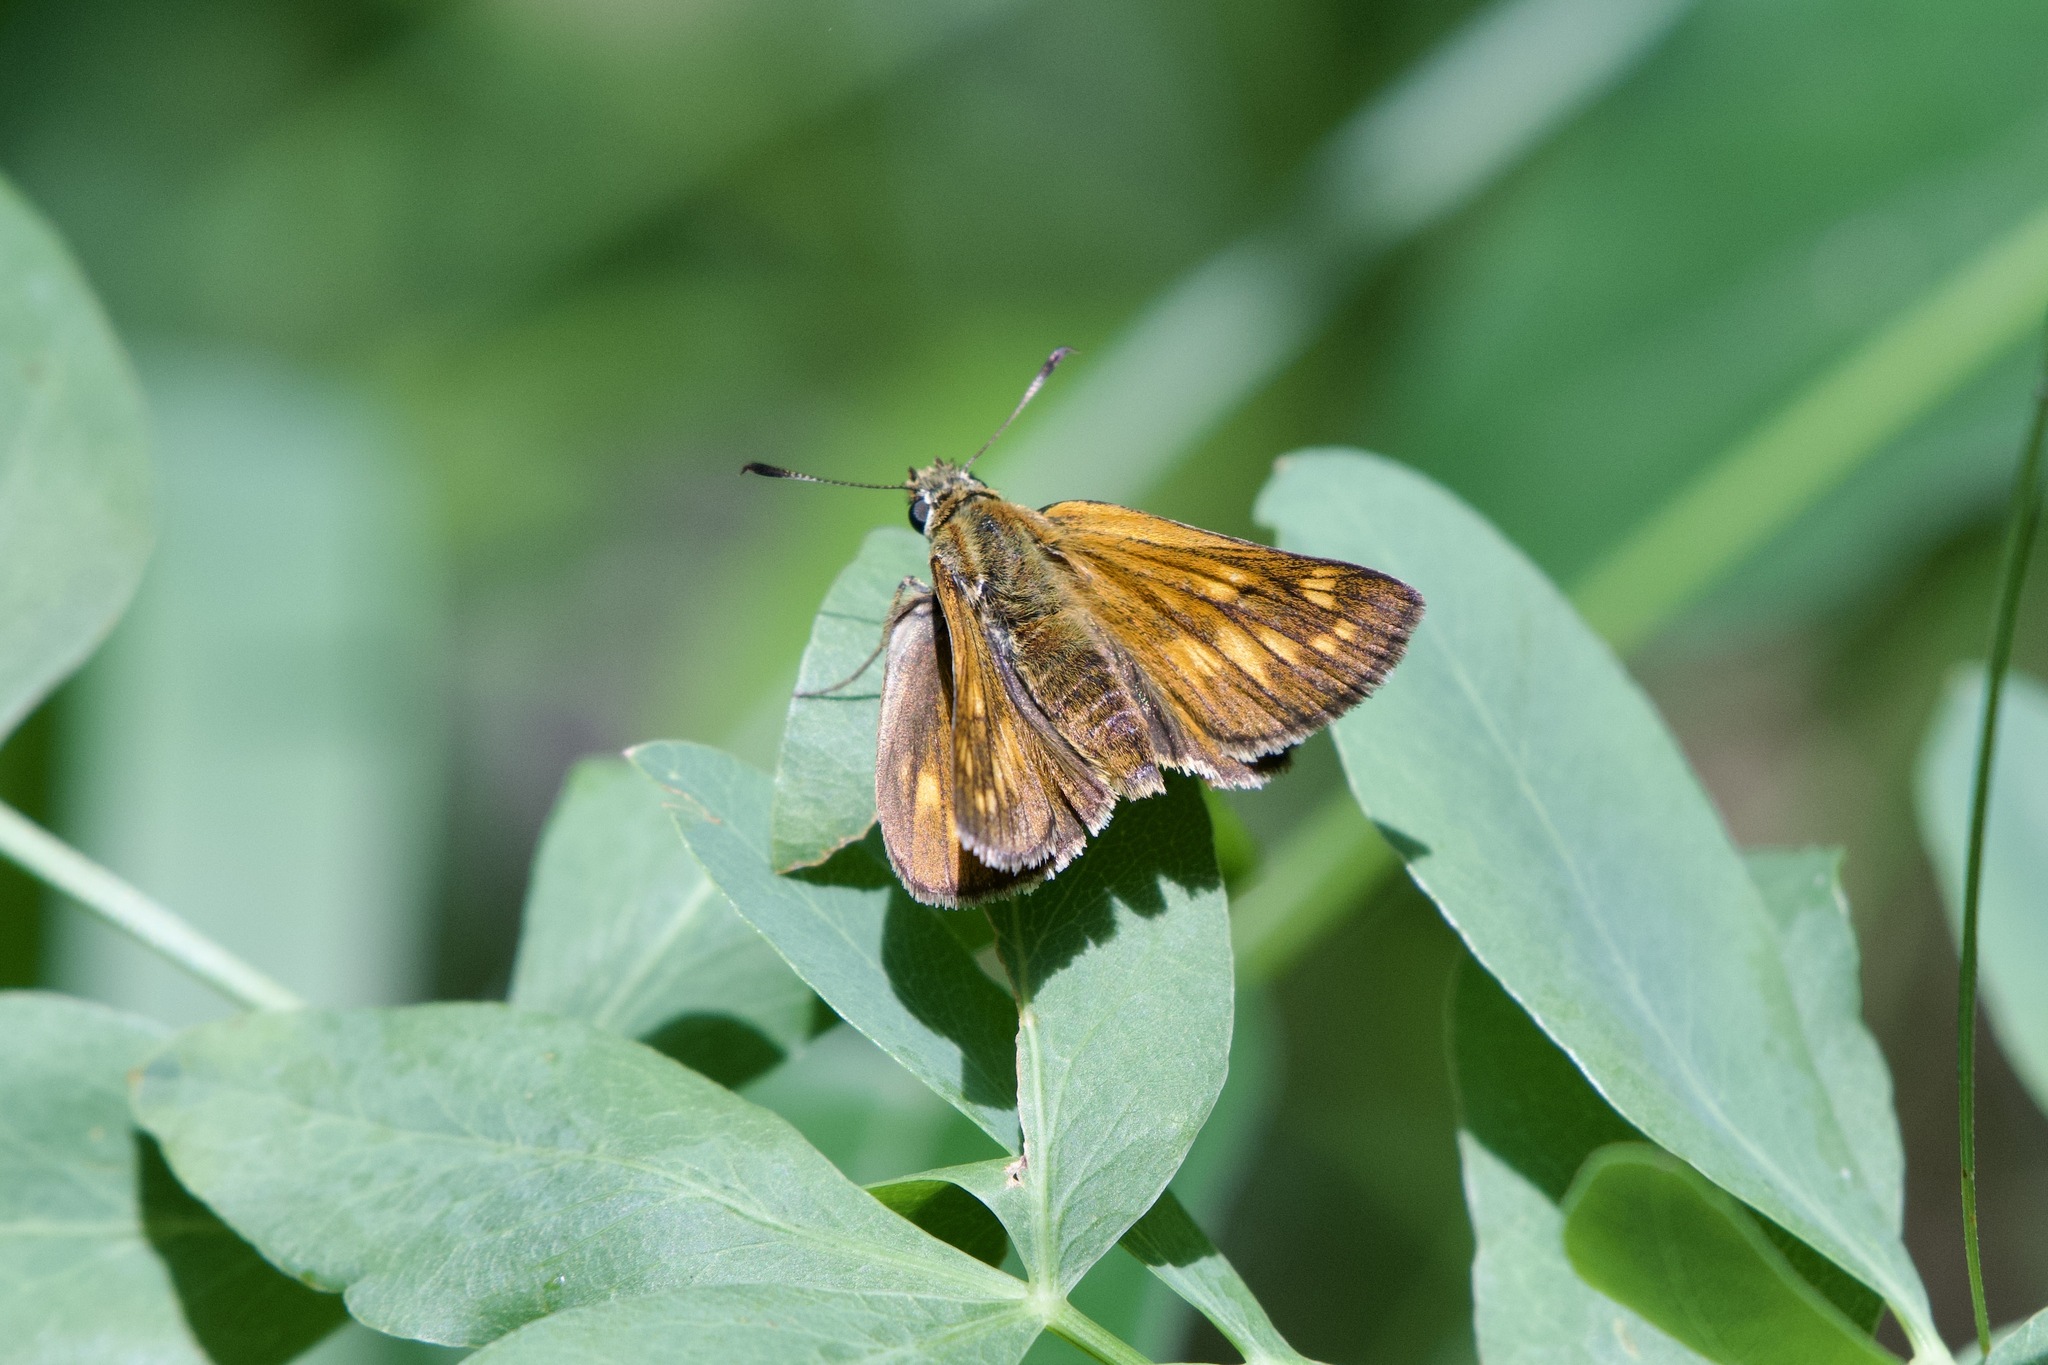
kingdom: Animalia
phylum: Arthropoda
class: Insecta
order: Lepidoptera
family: Hesperiidae
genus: Ochlodes
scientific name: Ochlodes venata
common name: Large skipper
